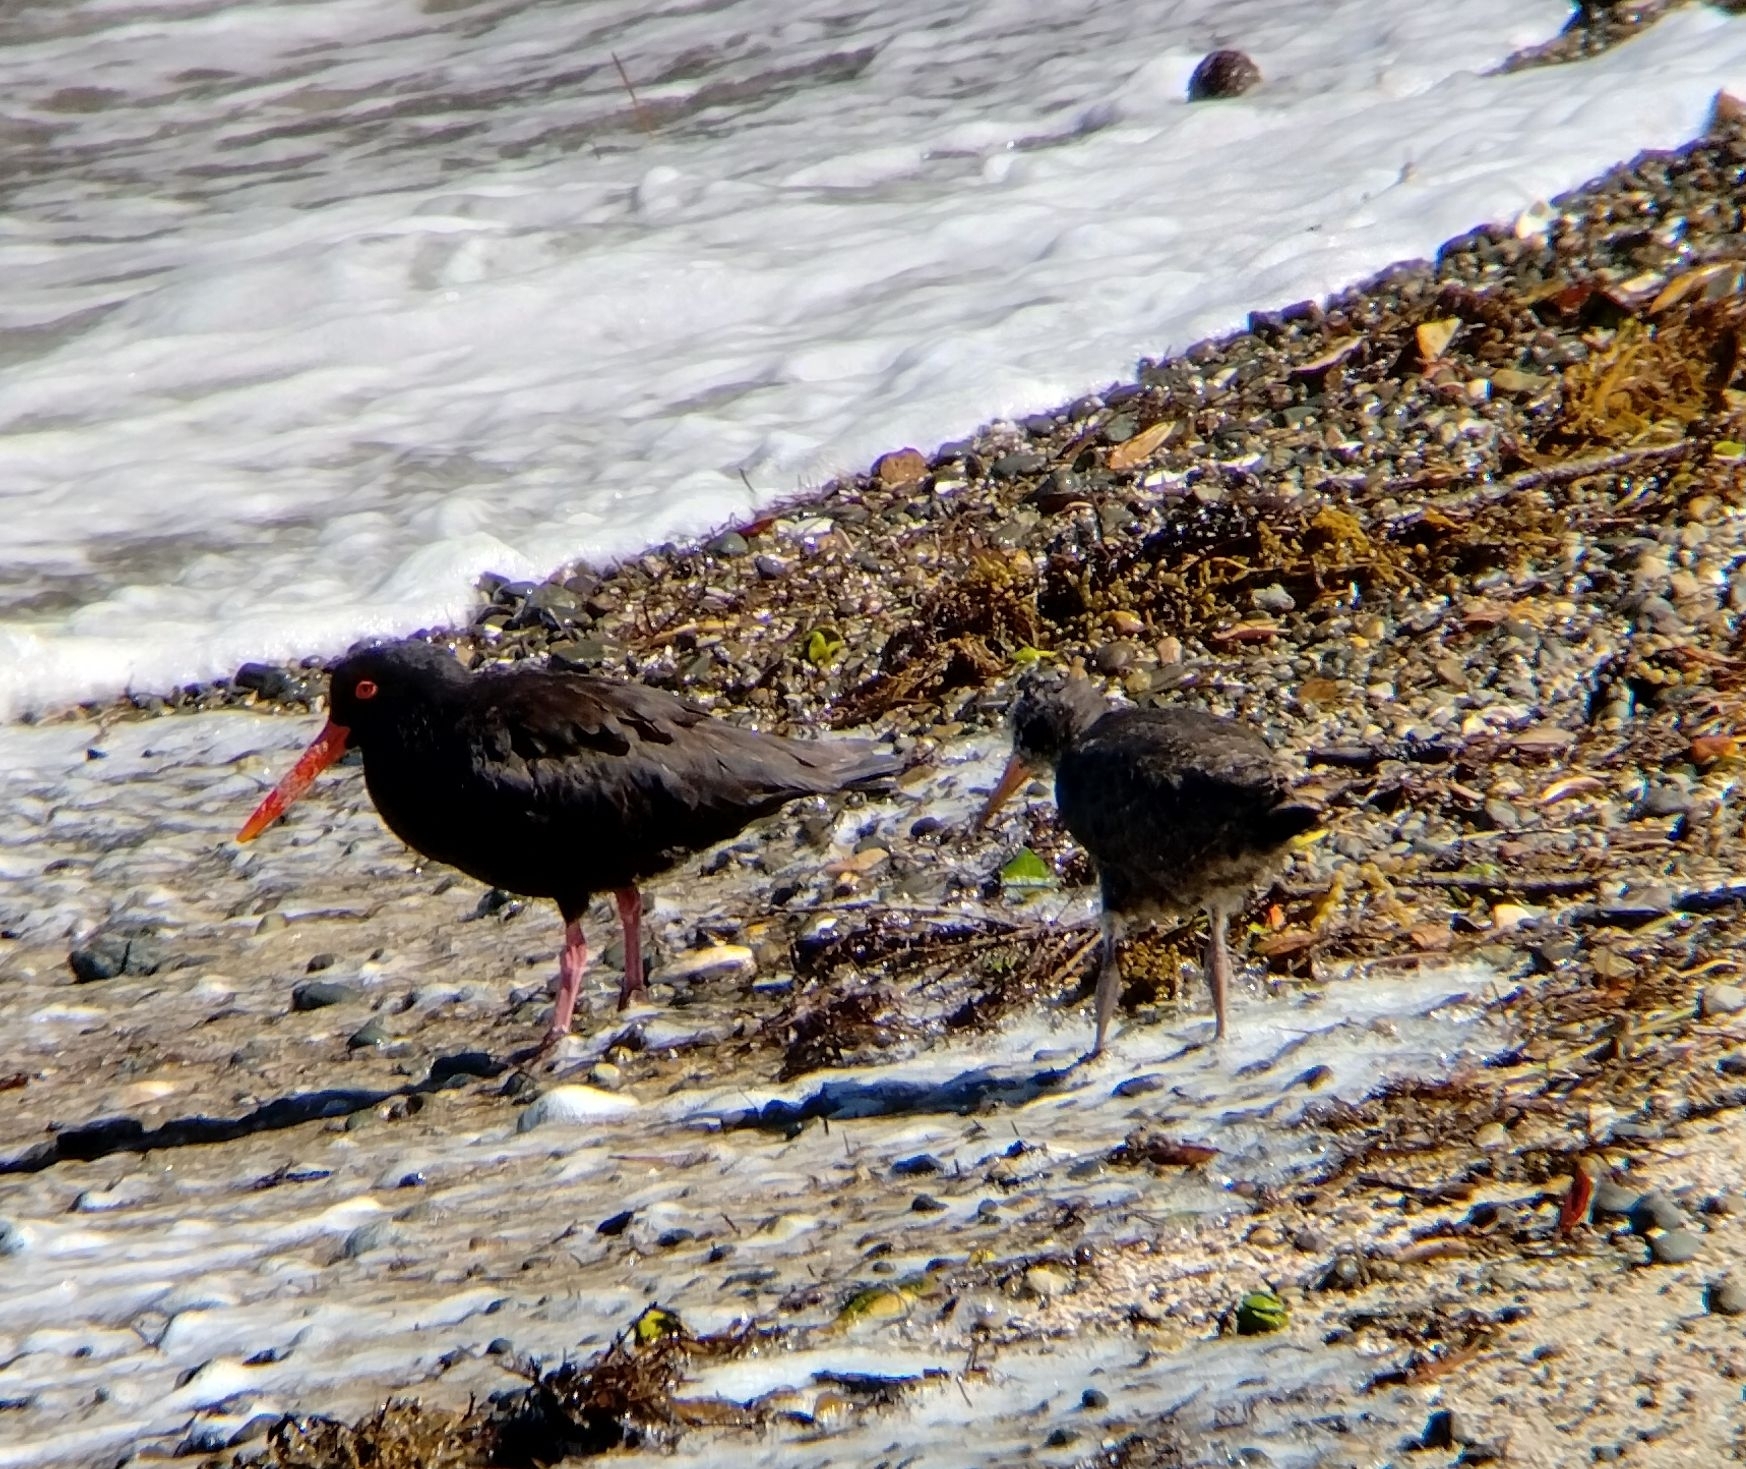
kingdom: Animalia
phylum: Chordata
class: Aves
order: Charadriiformes
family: Haematopodidae
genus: Haematopus
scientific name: Haematopus unicolor
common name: Variable oystercatcher
